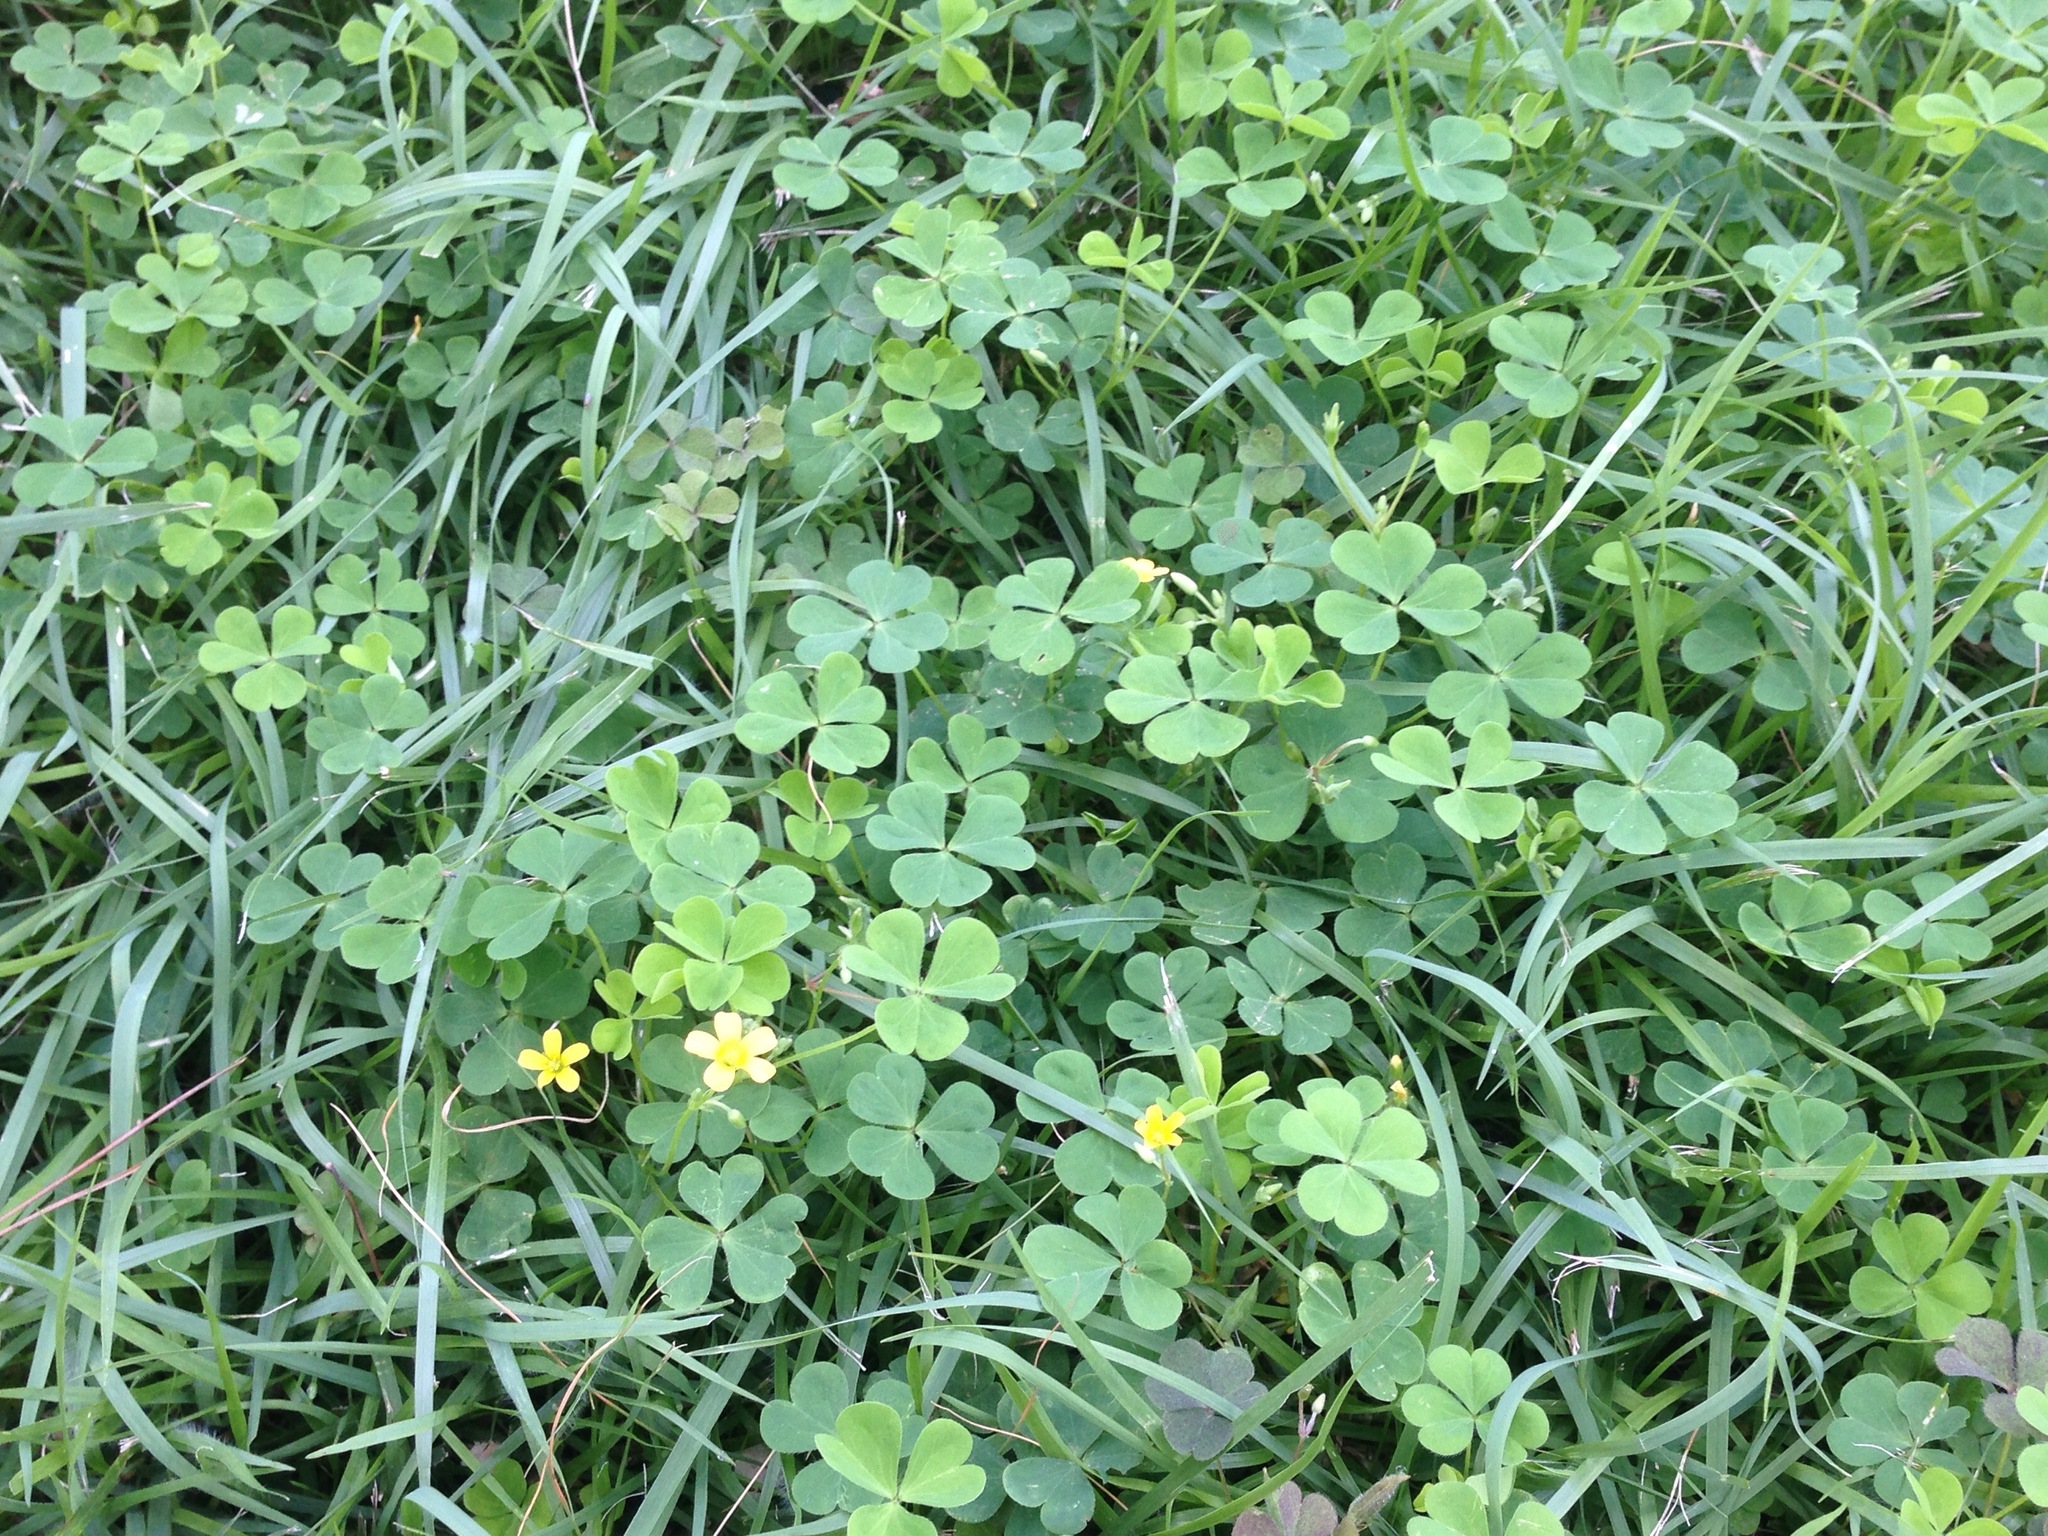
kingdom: Plantae
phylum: Tracheophyta
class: Magnoliopsida
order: Oxalidales
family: Oxalidaceae
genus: Oxalis
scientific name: Oxalis corniculata
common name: Procumbent yellow-sorrel
